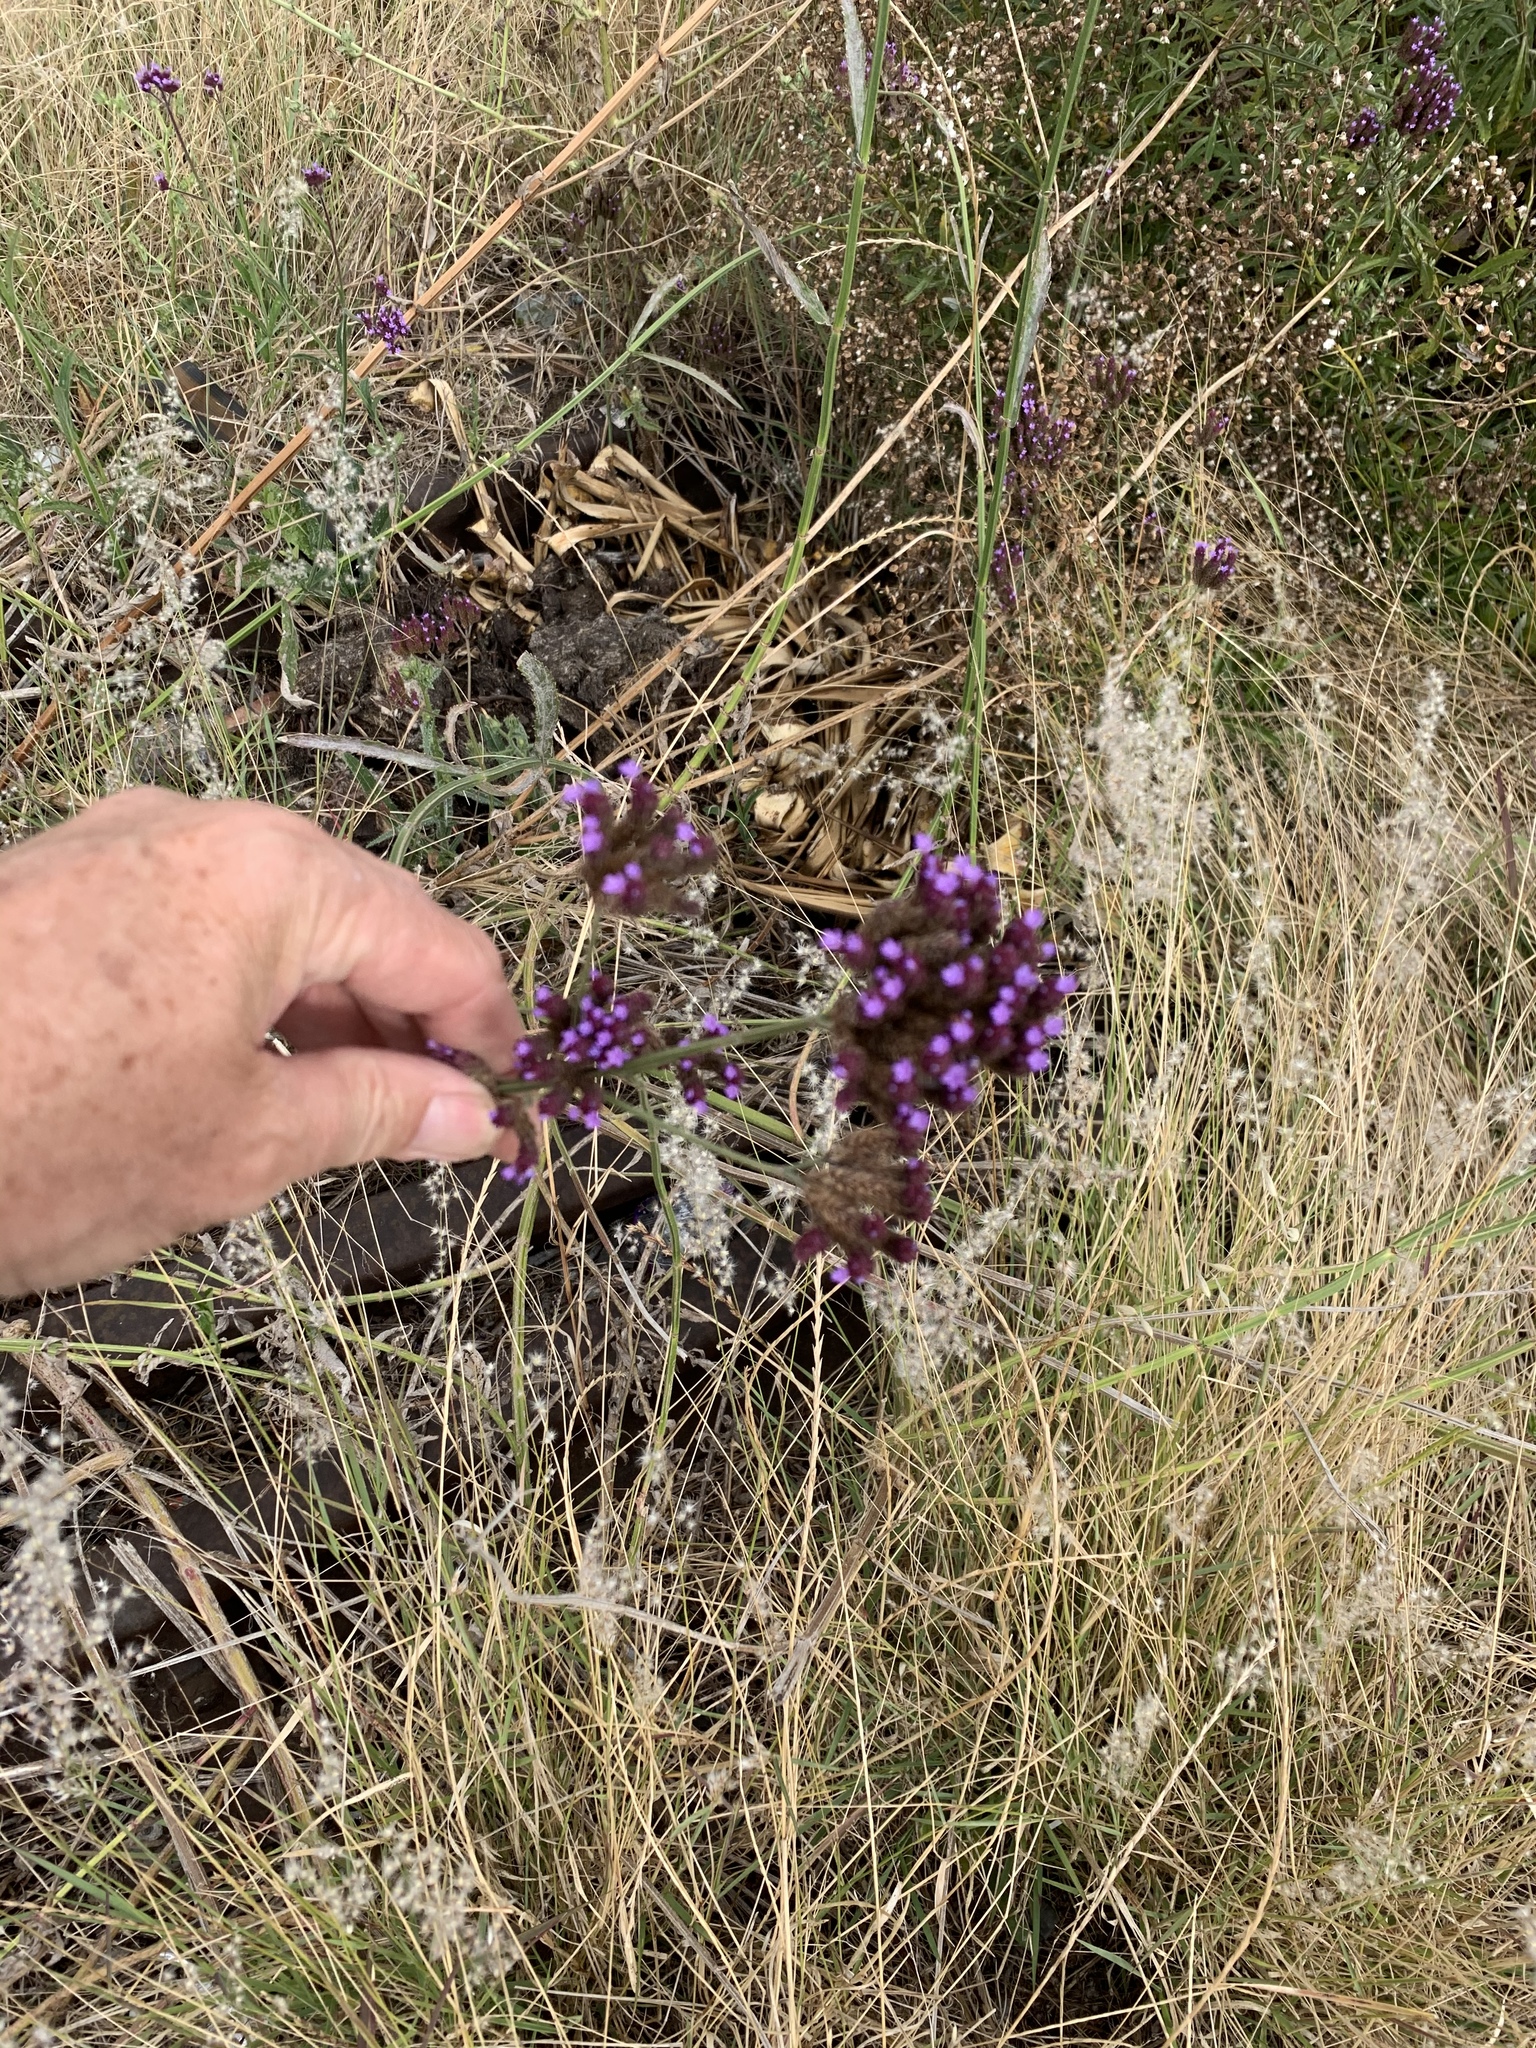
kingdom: Plantae
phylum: Tracheophyta
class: Magnoliopsida
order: Lamiales
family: Verbenaceae
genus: Verbena
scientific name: Verbena bonariensis
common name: Purpletop vervain
